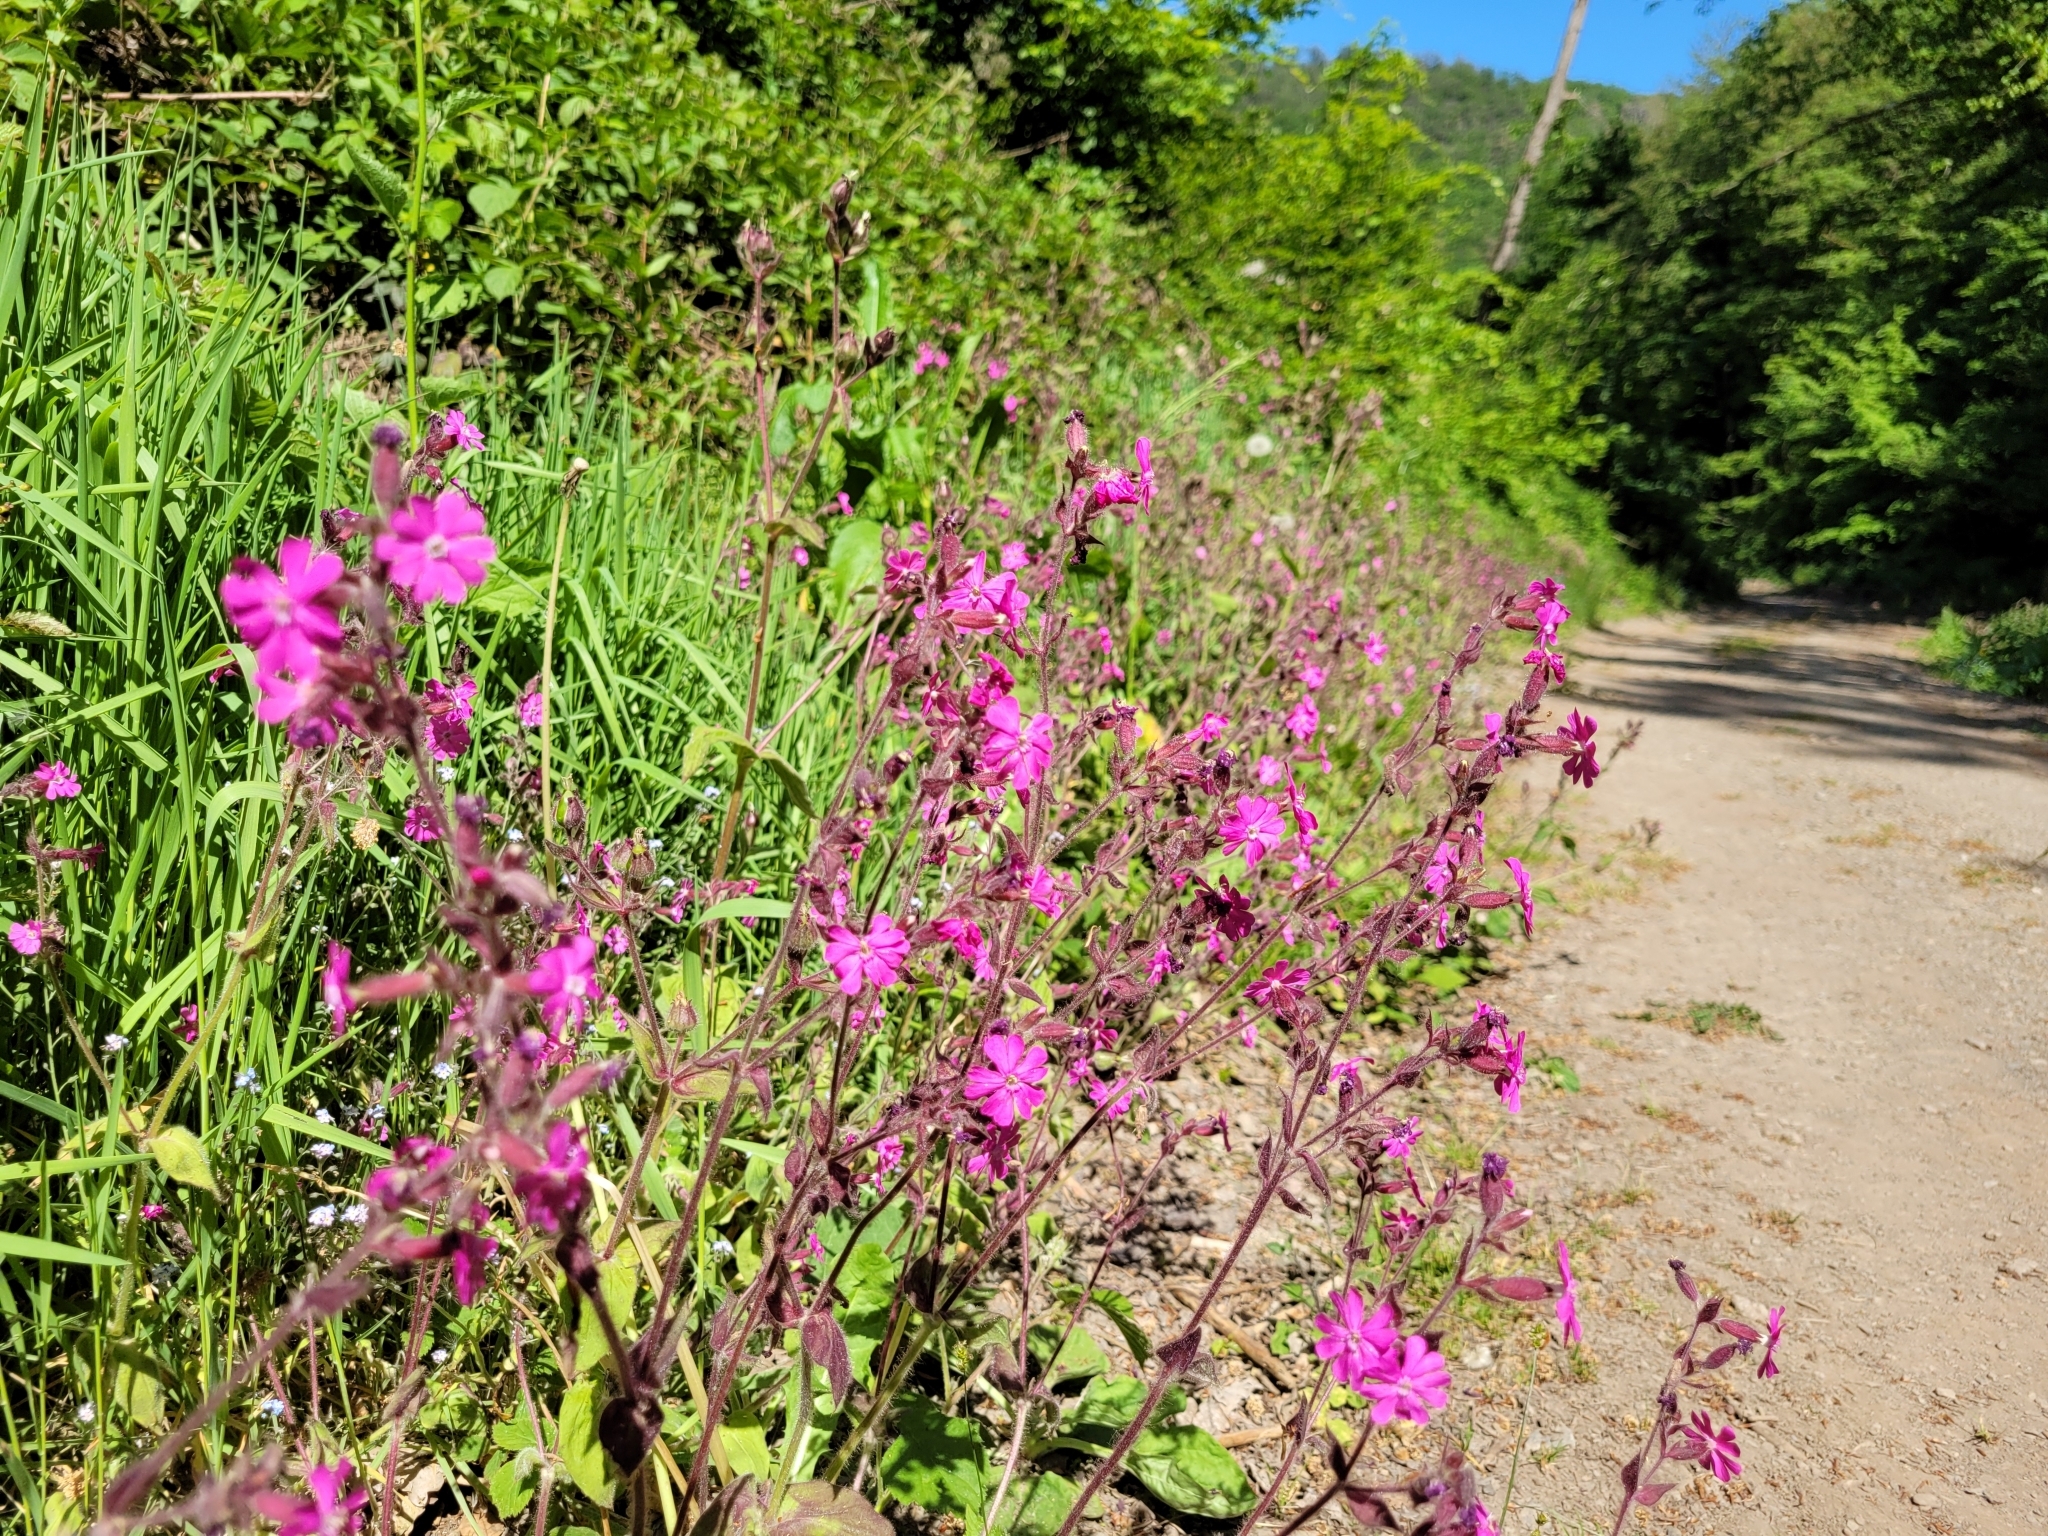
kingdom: Plantae
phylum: Tracheophyta
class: Magnoliopsida
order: Caryophyllales
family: Caryophyllaceae
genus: Silene
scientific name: Silene dioica
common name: Red campion
